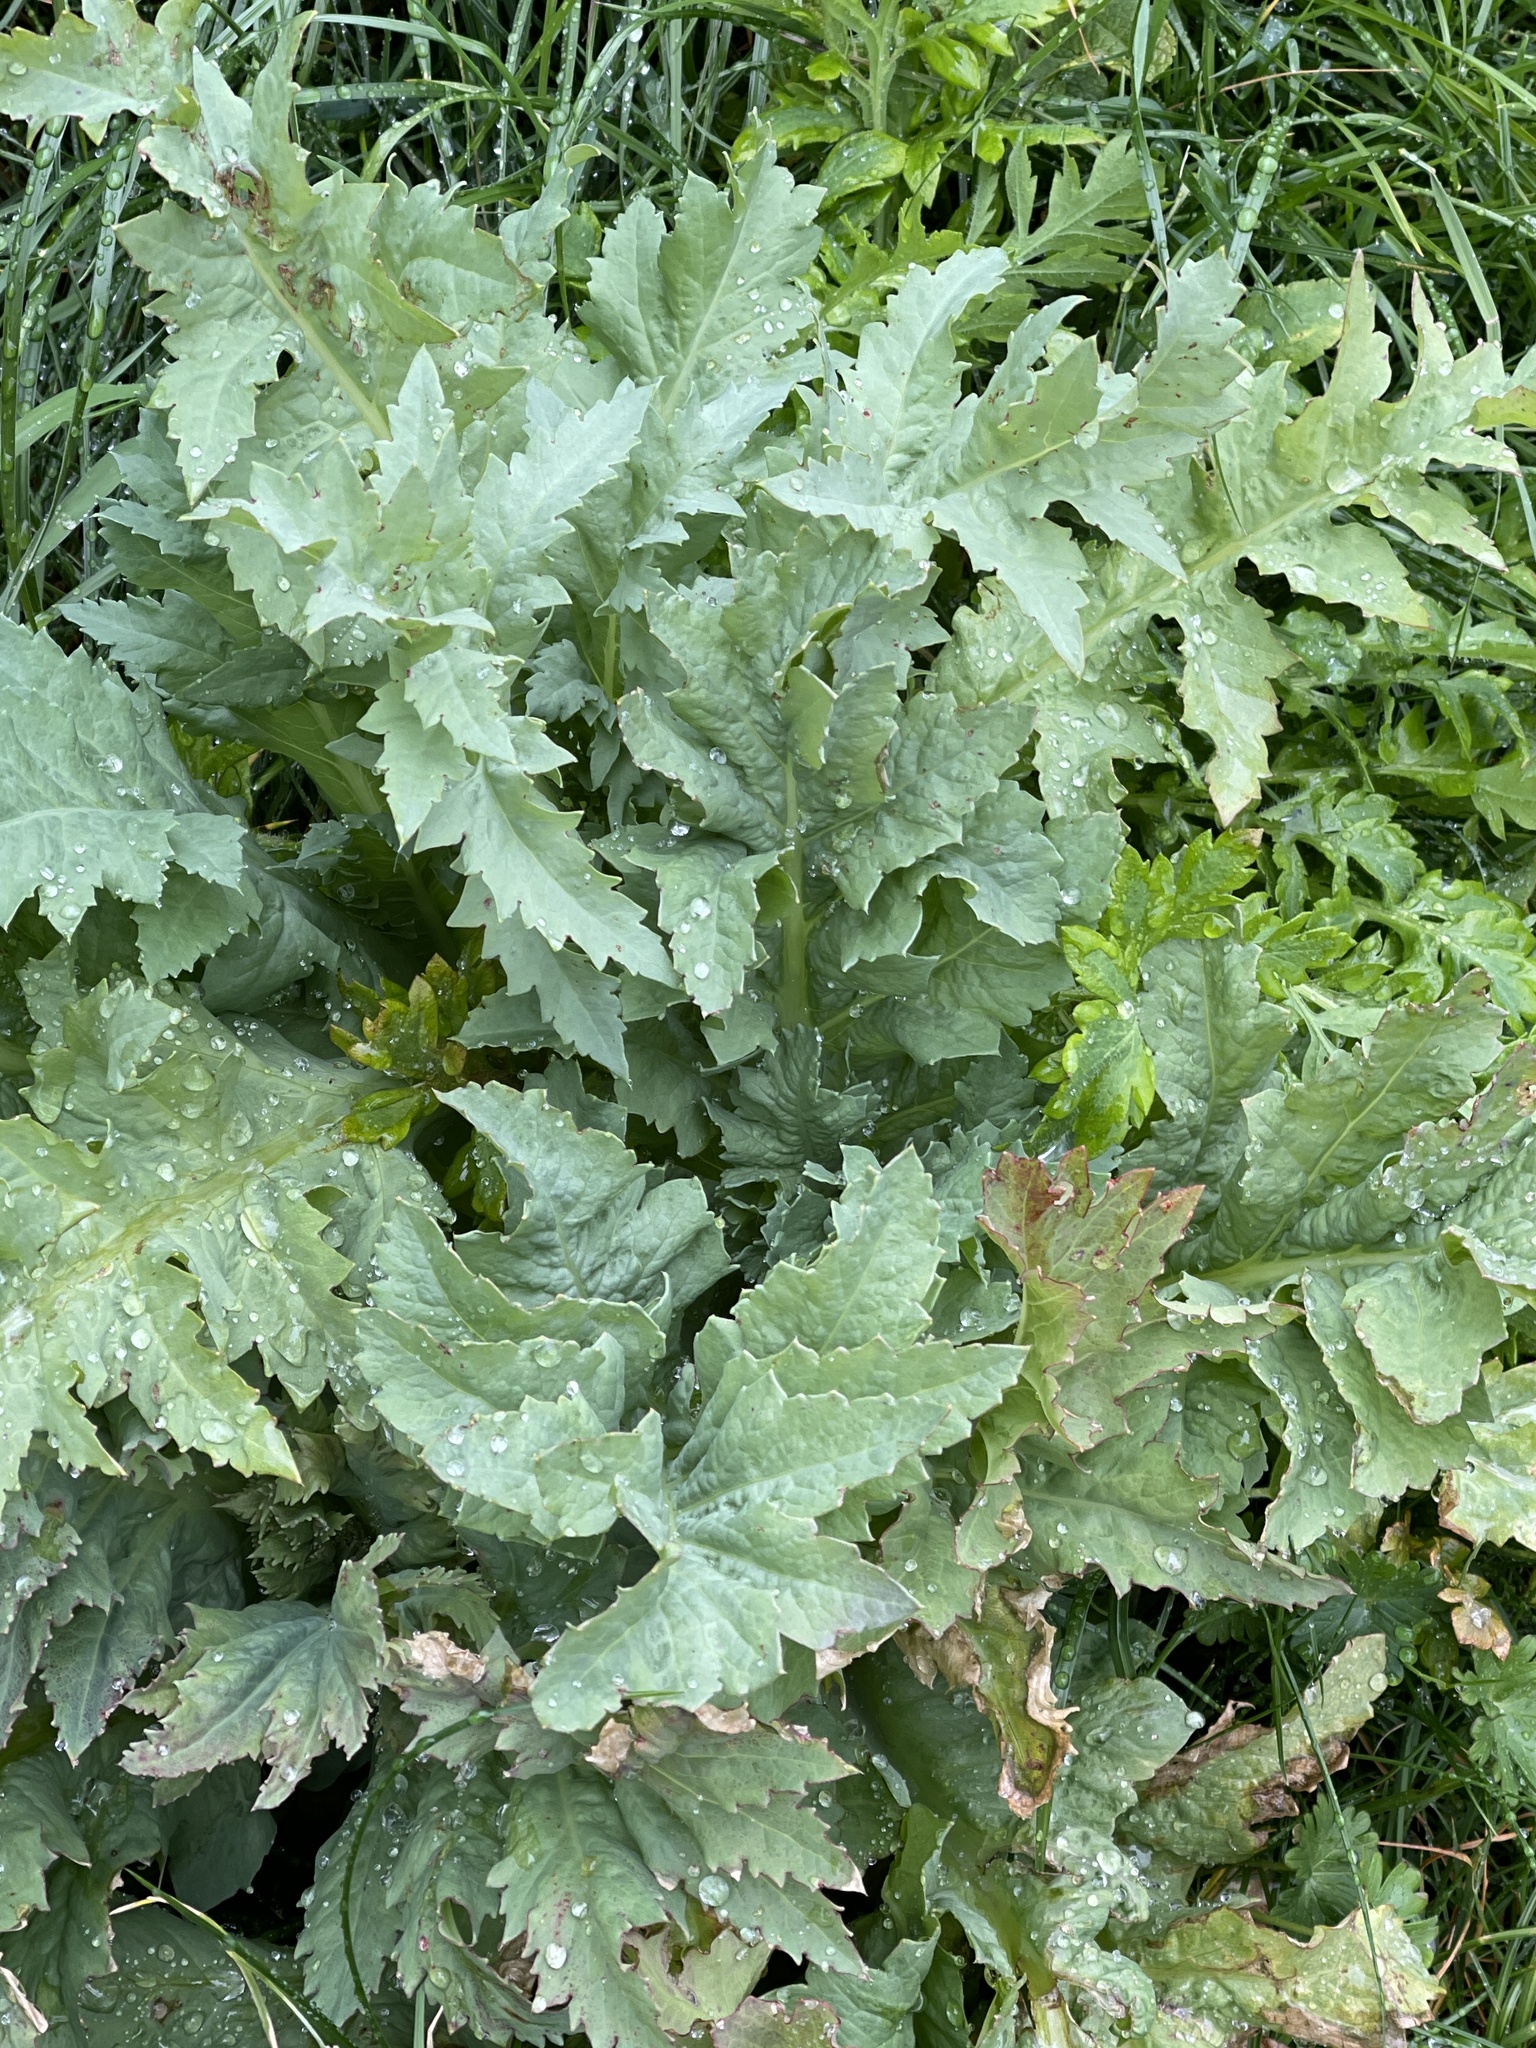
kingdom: Plantae
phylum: Tracheophyta
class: Magnoliopsida
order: Ranunculales
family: Papaveraceae
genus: Papaver
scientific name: Papaver somniferum
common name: Opium poppy
